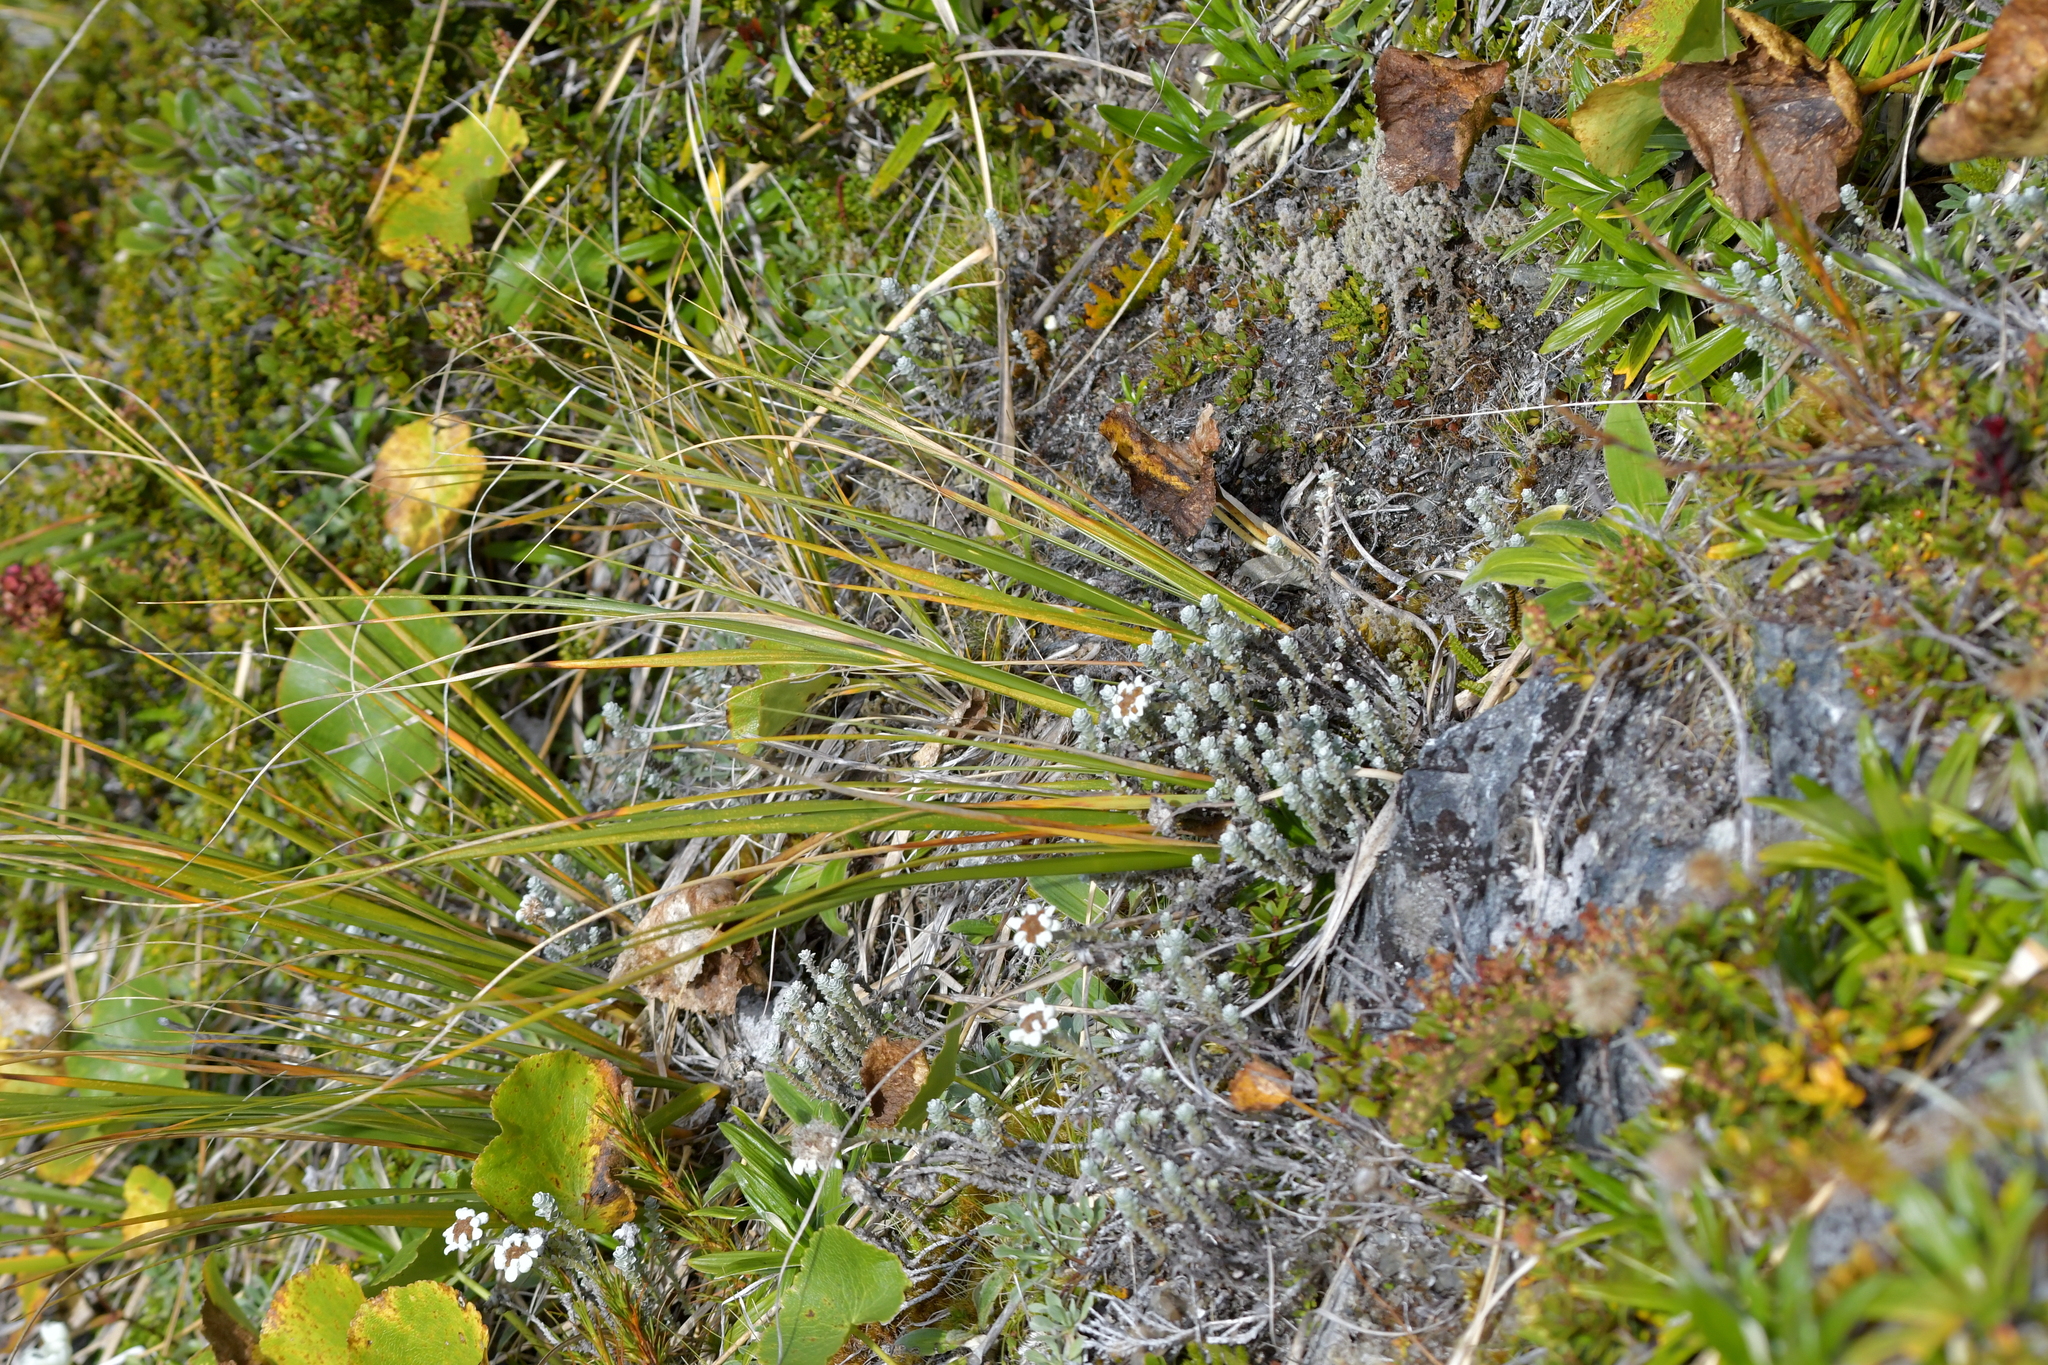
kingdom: Plantae
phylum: Tracheophyta
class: Magnoliopsida
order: Asterales
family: Asteraceae
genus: Leucogenes
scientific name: Leucogenes grandiceps
